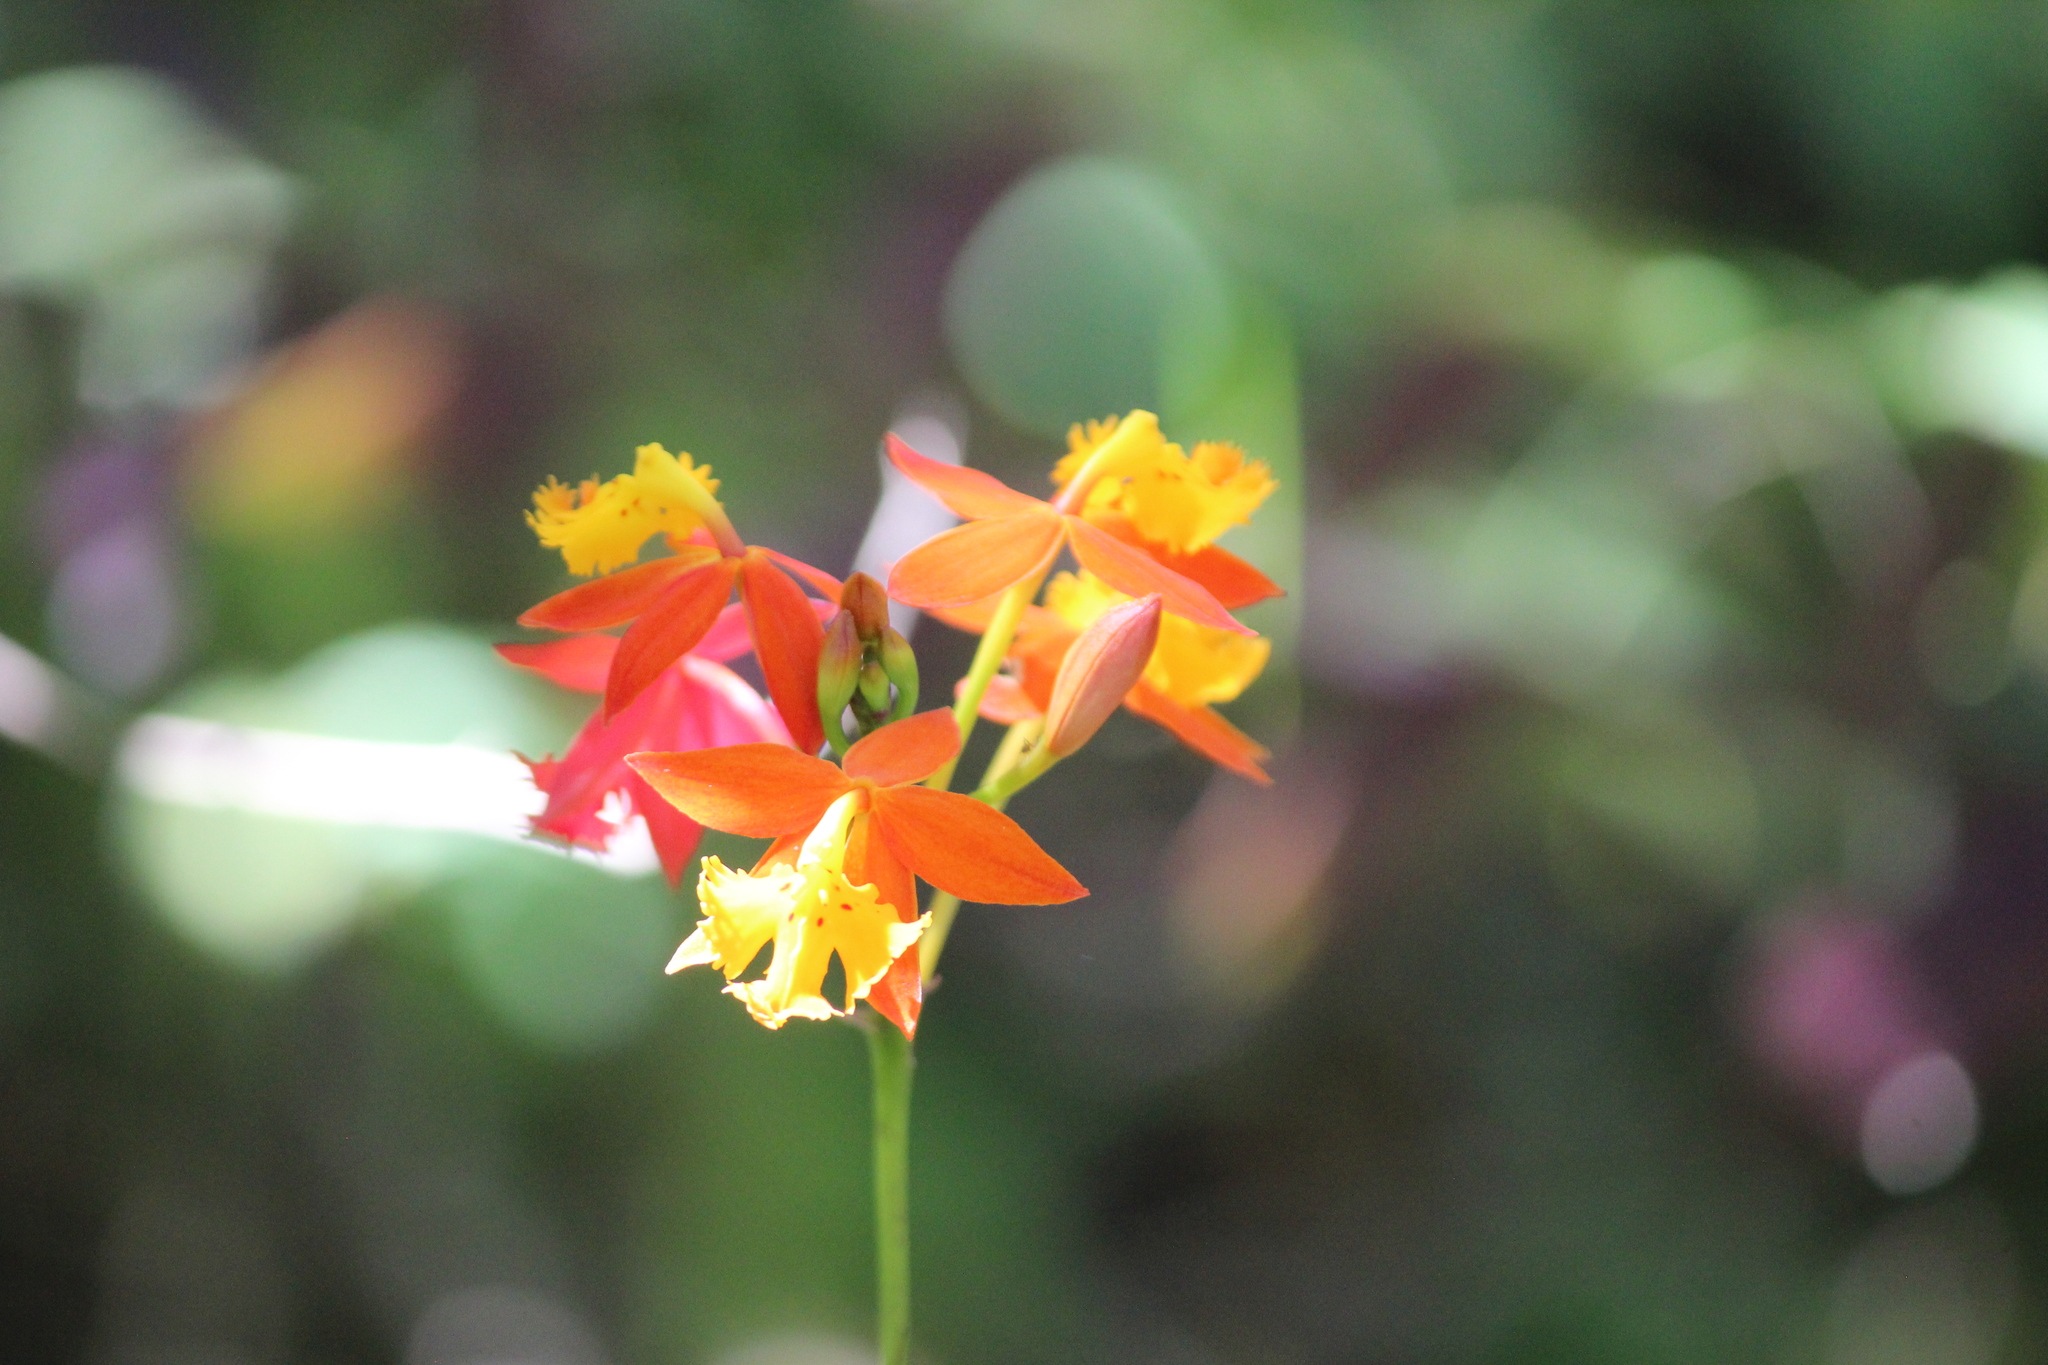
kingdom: Plantae
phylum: Tracheophyta
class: Liliopsida
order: Asparagales
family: Orchidaceae
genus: Epidendrum
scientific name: Epidendrum radicans
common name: Fire star orchid
